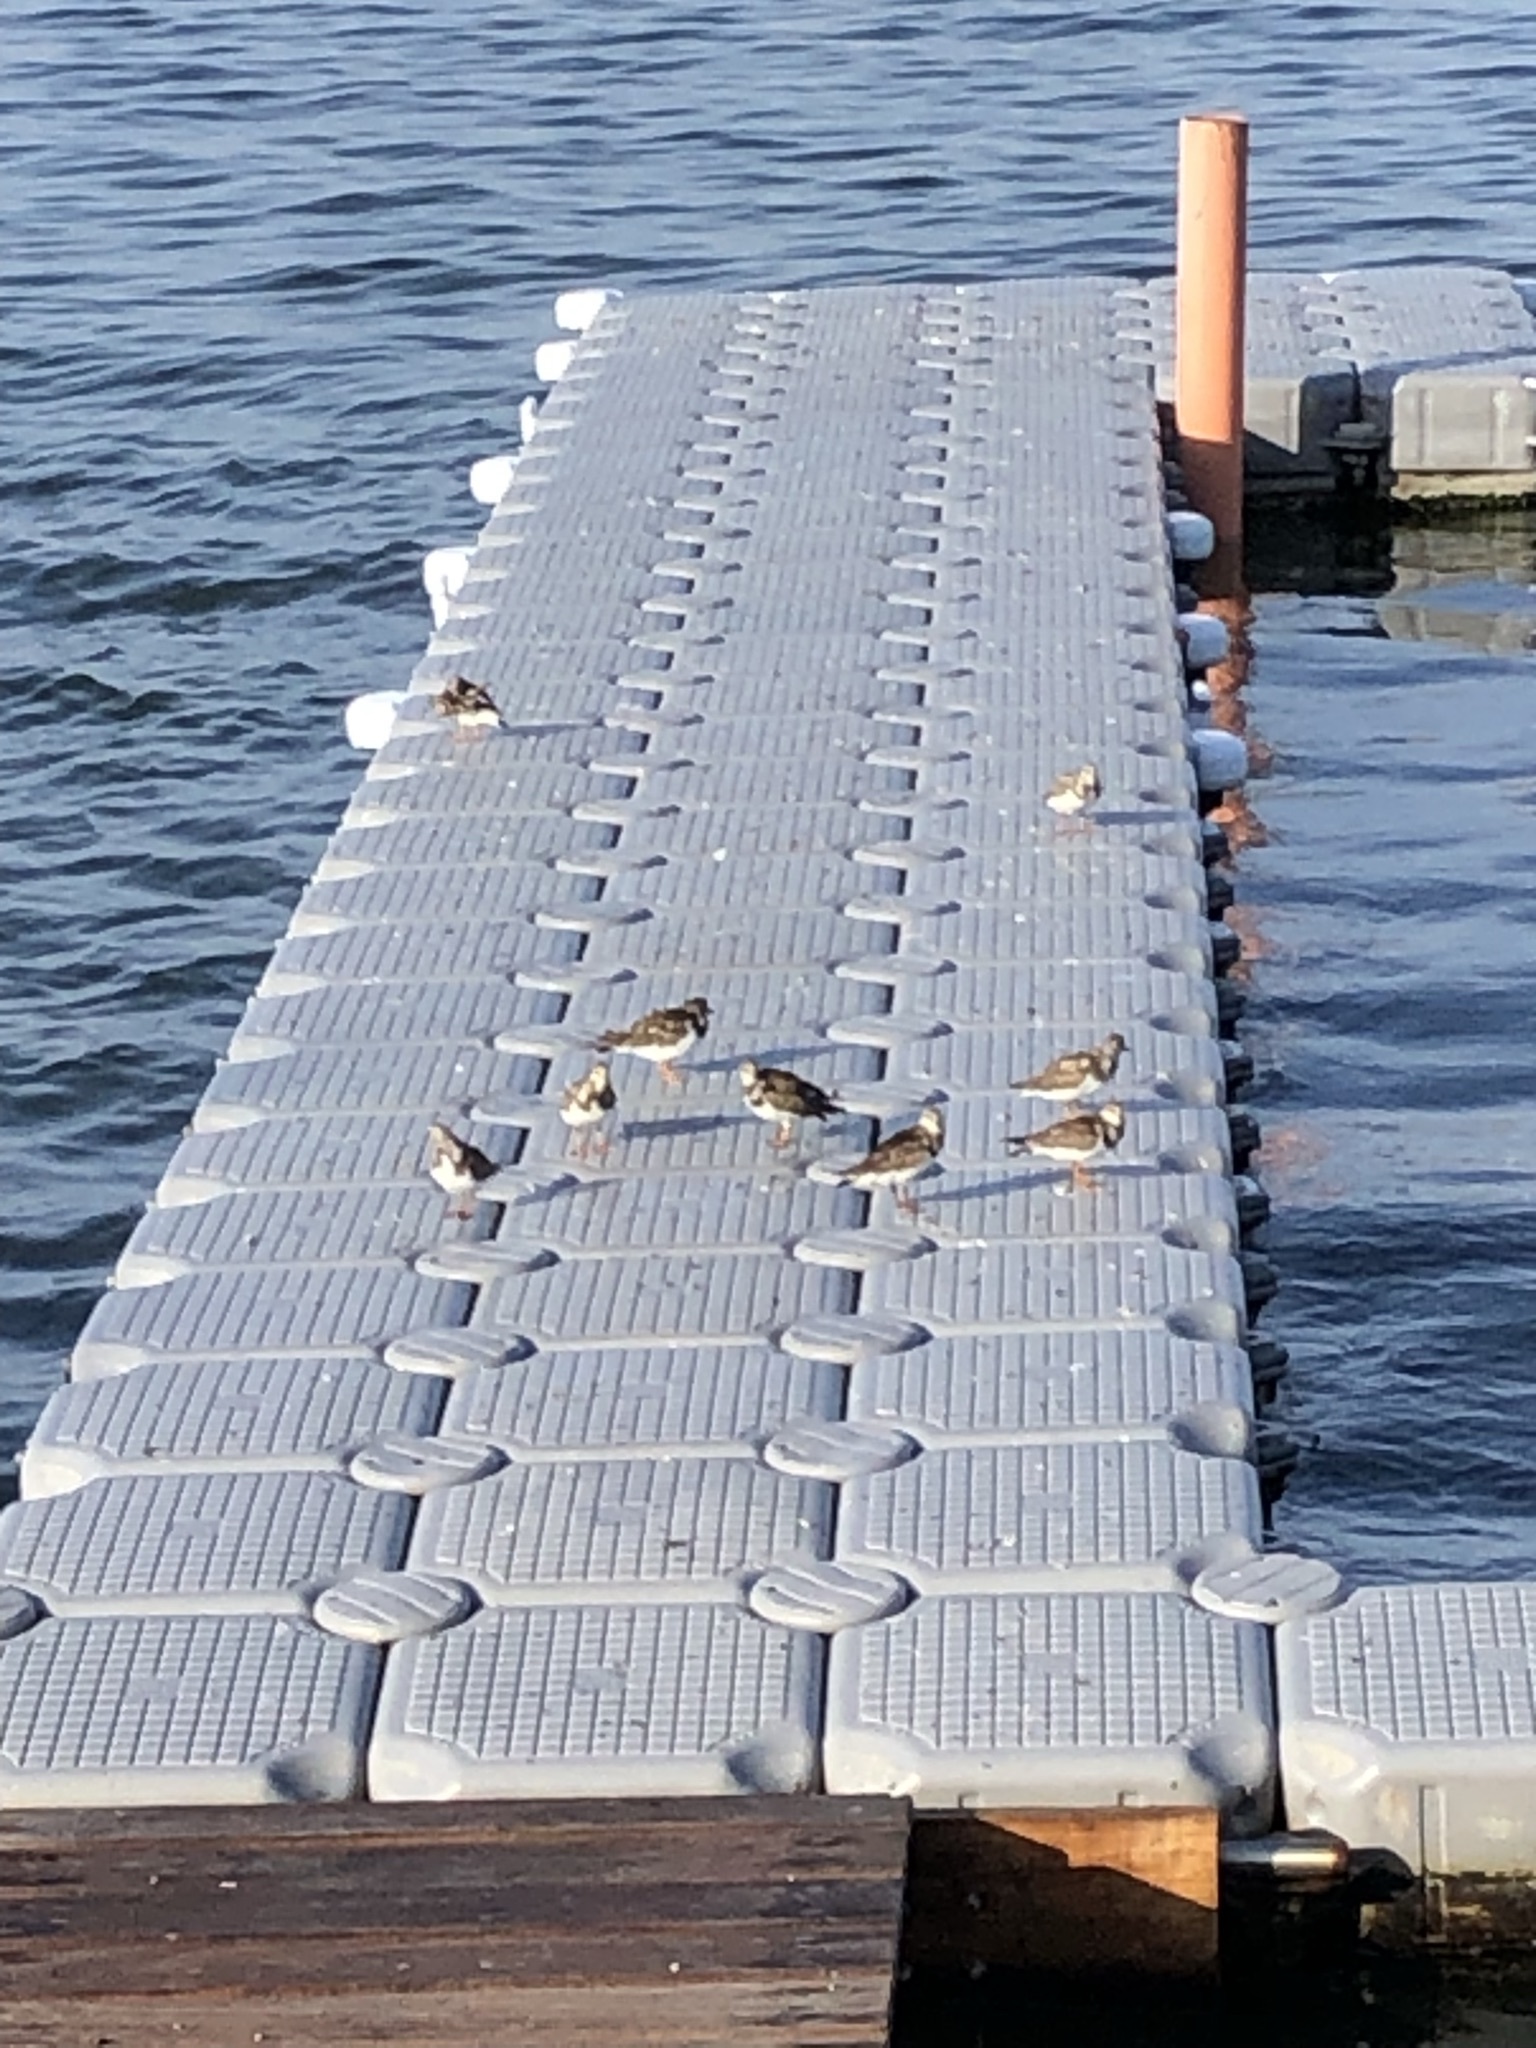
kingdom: Animalia
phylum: Chordata
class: Aves
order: Charadriiformes
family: Scolopacidae
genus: Arenaria
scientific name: Arenaria interpres
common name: Ruddy turnstone
